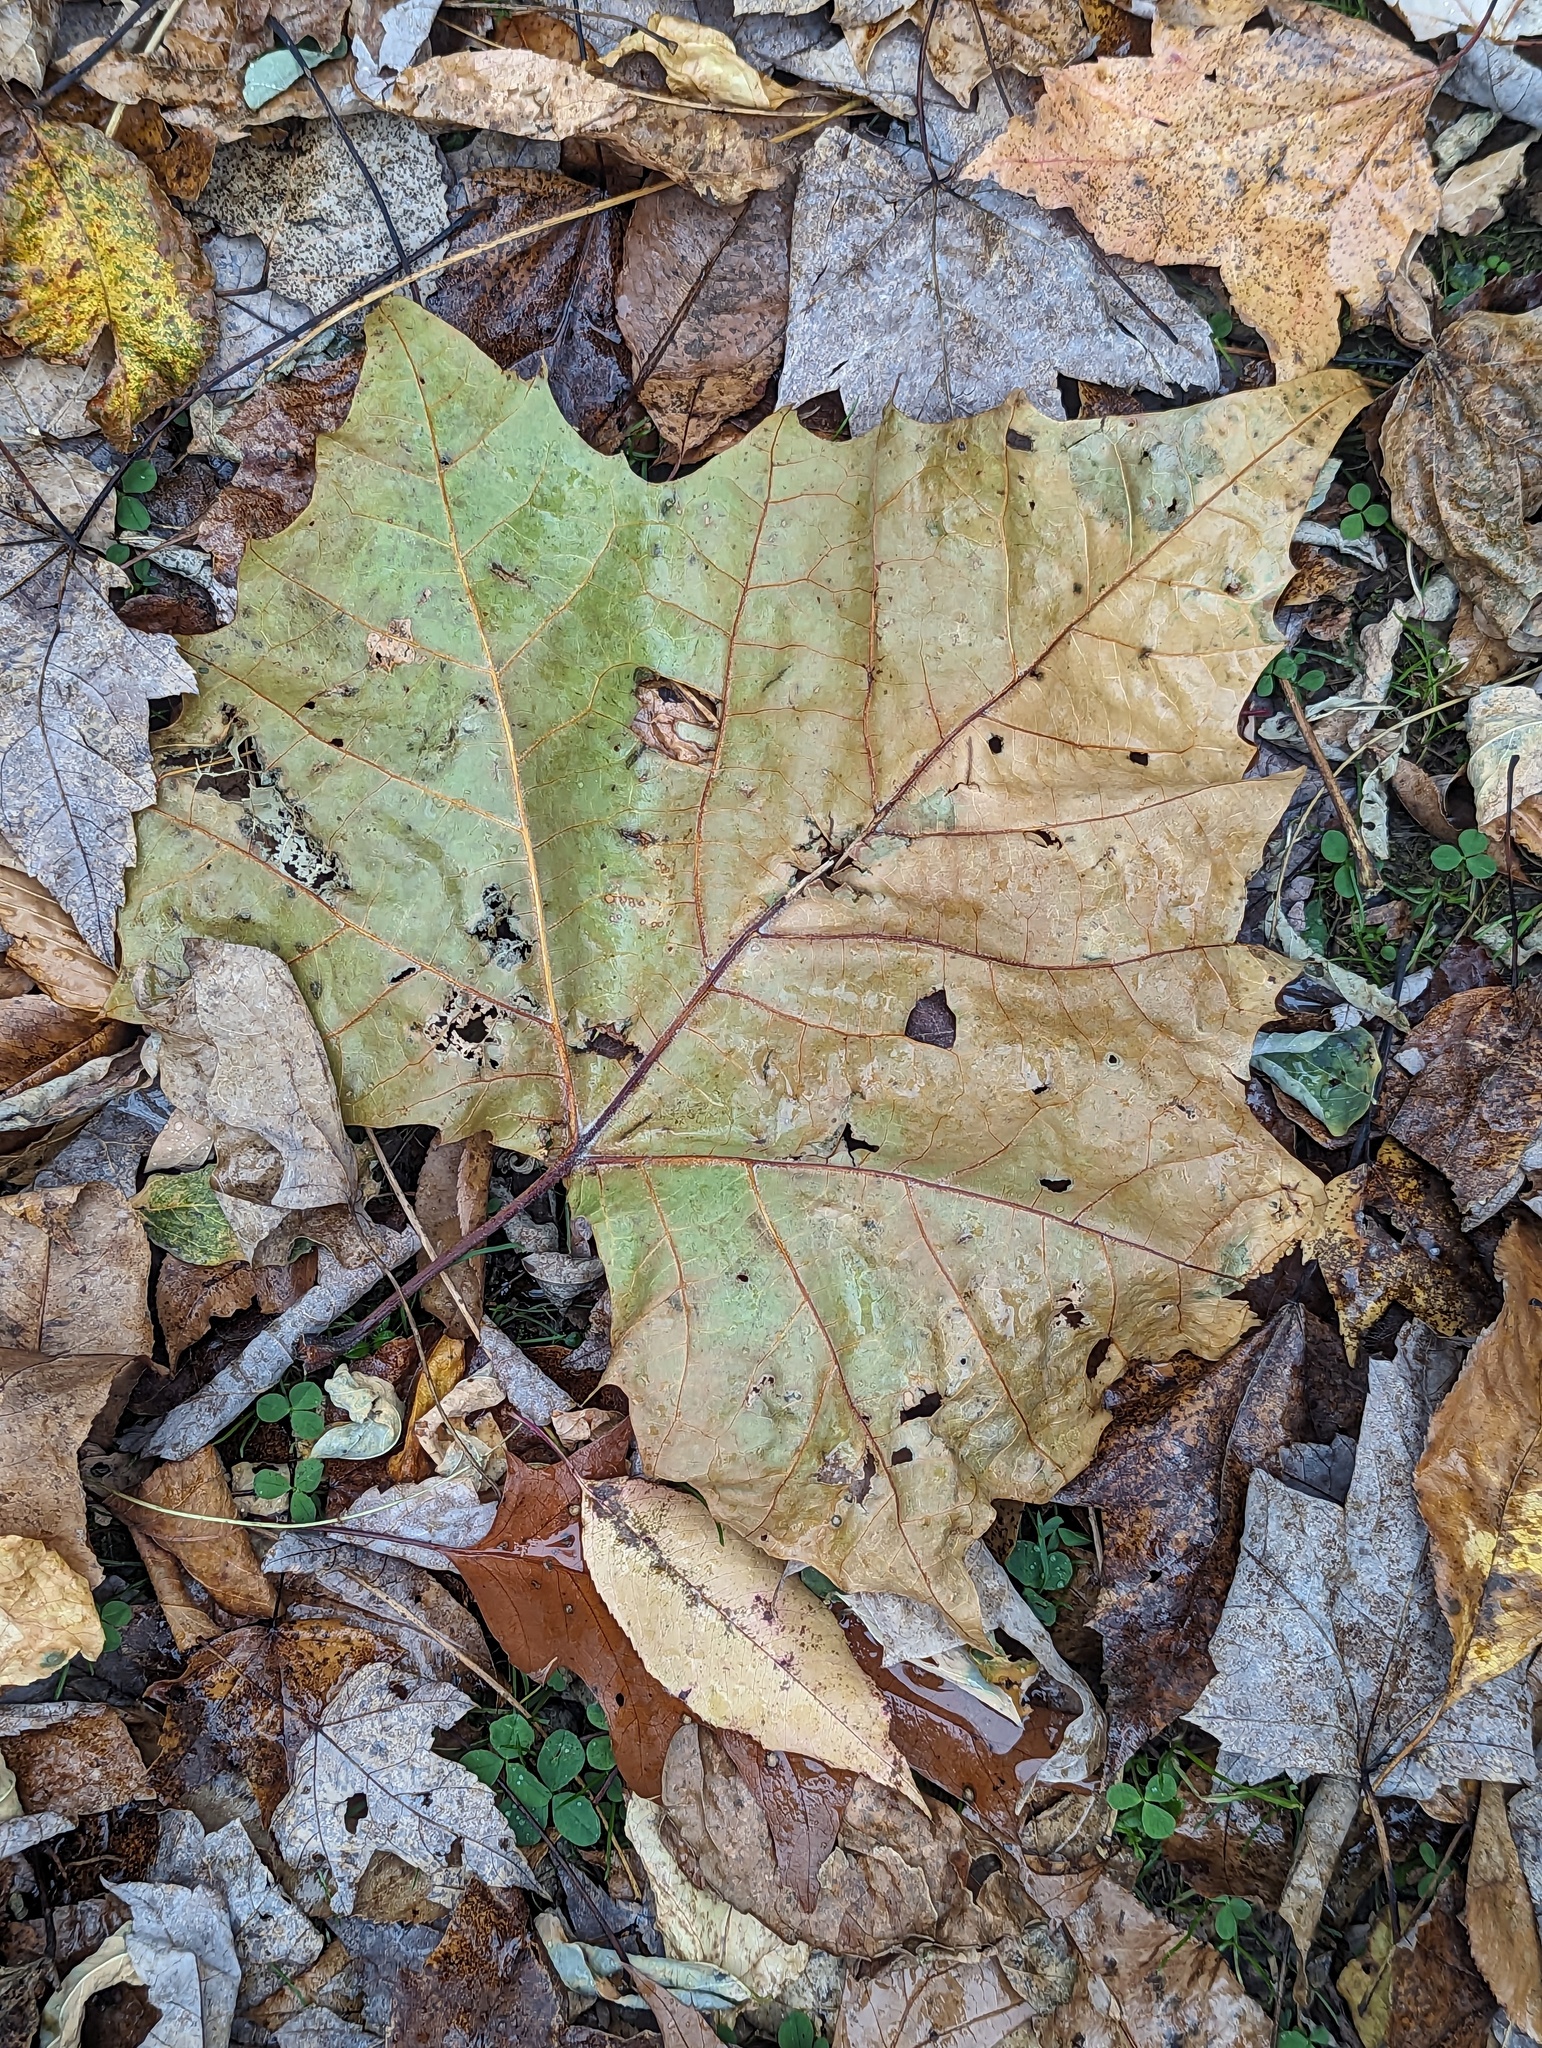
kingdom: Plantae
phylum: Tracheophyta
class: Magnoliopsida
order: Proteales
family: Platanaceae
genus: Platanus
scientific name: Platanus occidentalis
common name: American sycamore
